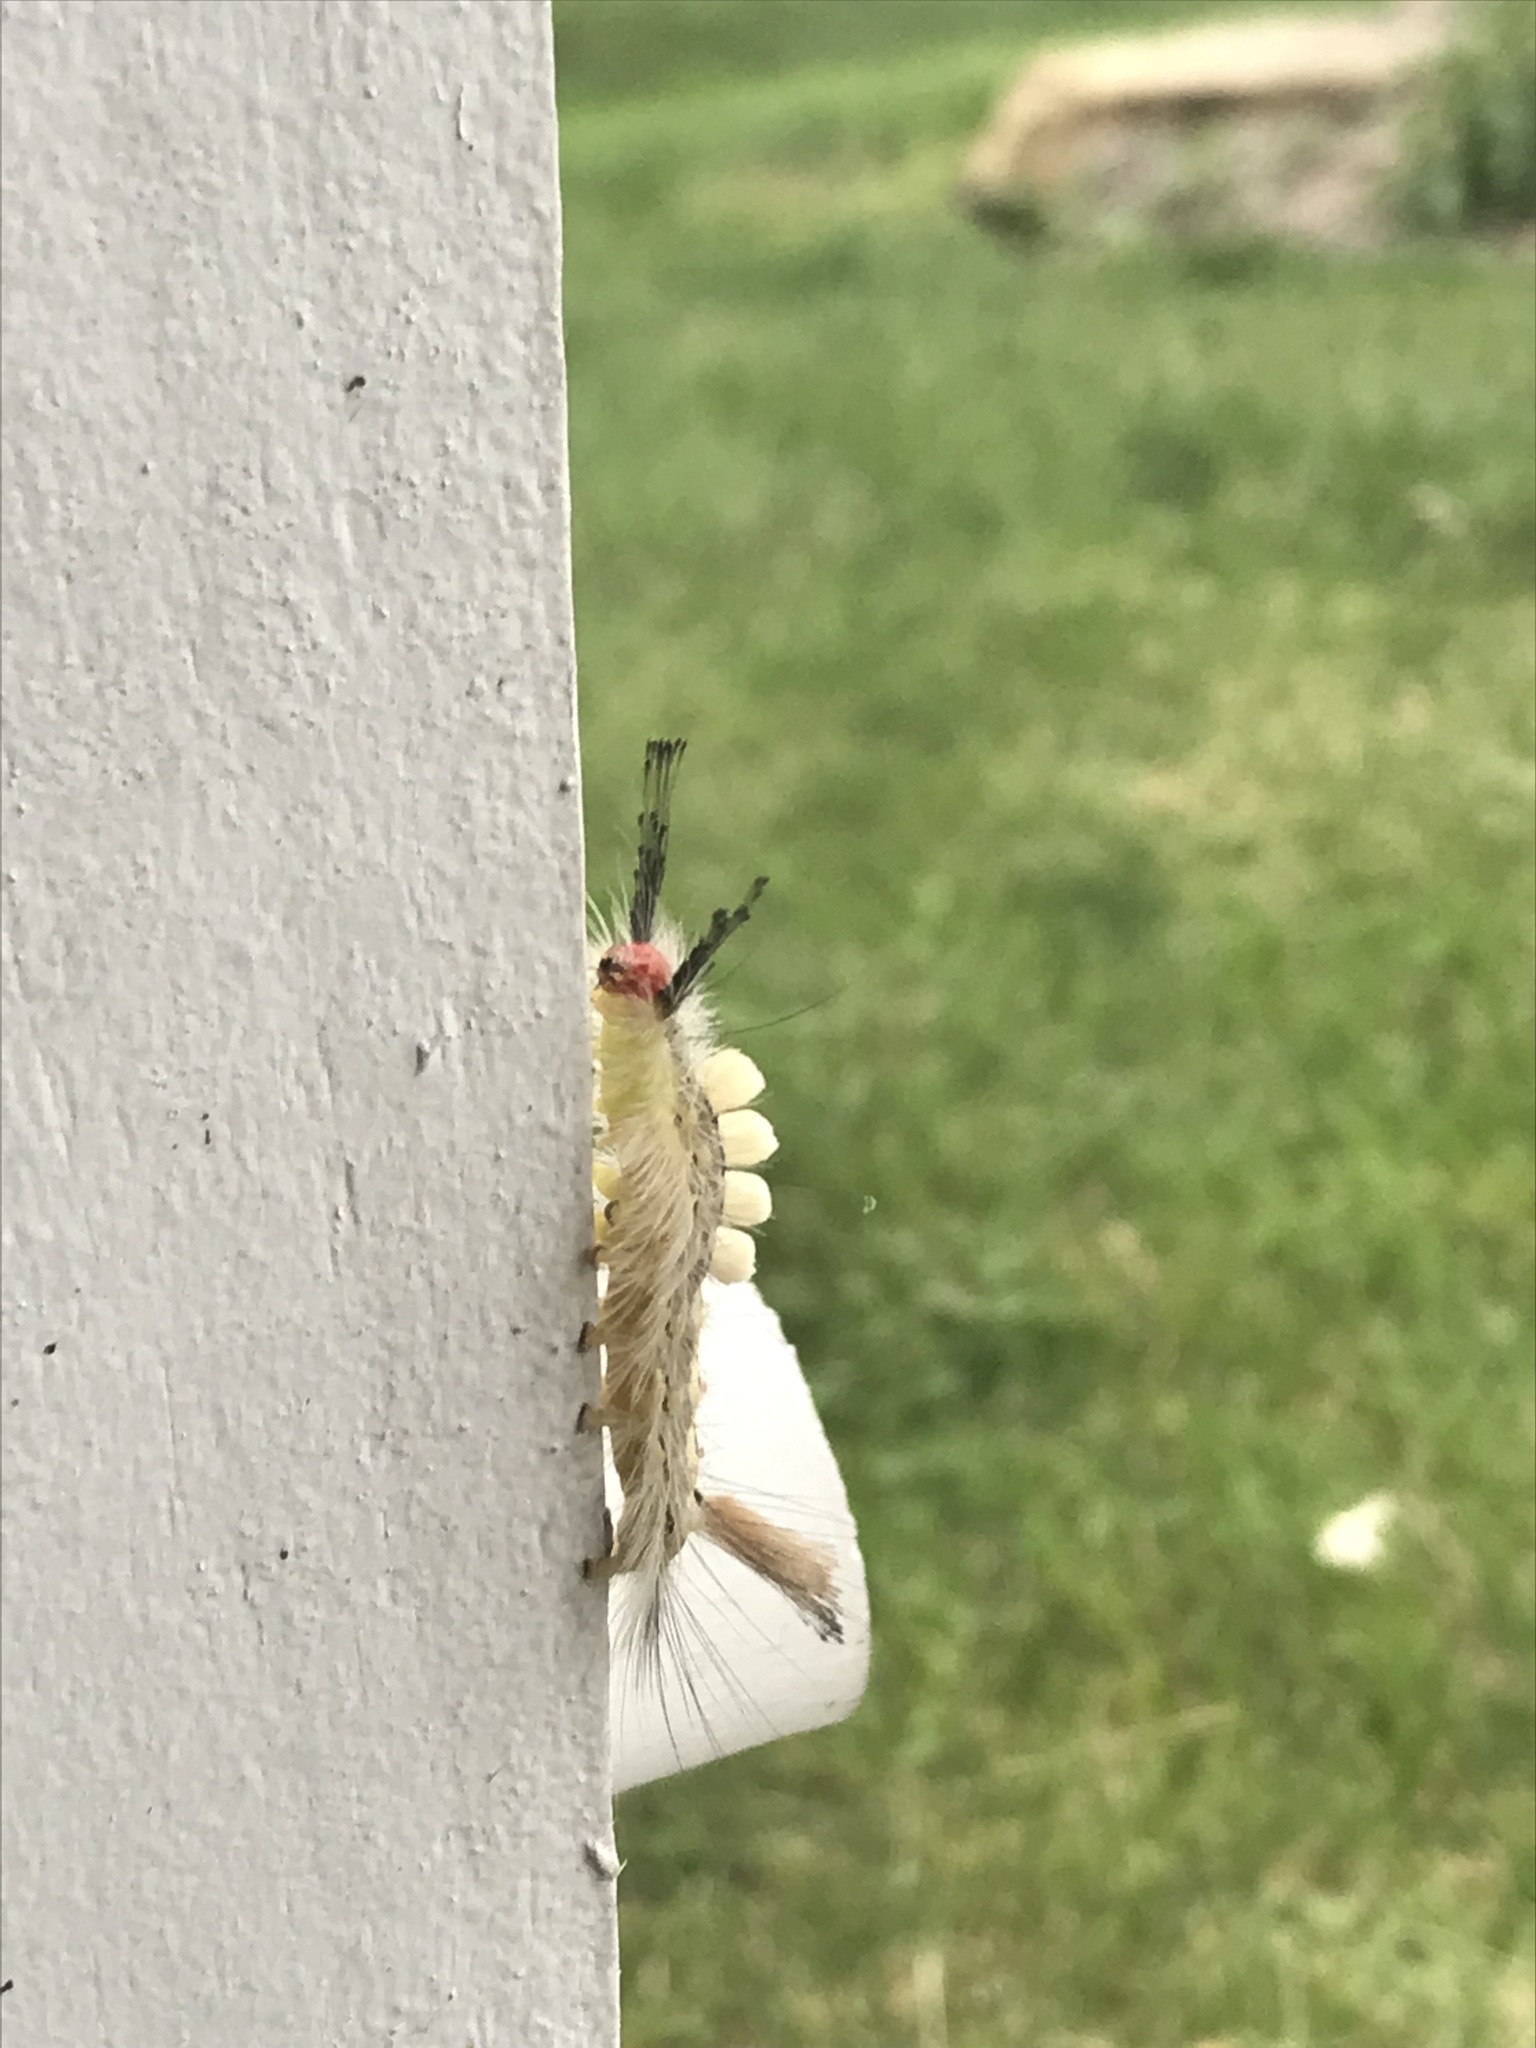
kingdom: Animalia
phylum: Arthropoda
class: Insecta
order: Lepidoptera
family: Erebidae
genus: Orgyia
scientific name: Orgyia leucostigma
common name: White-marked tussock moth
